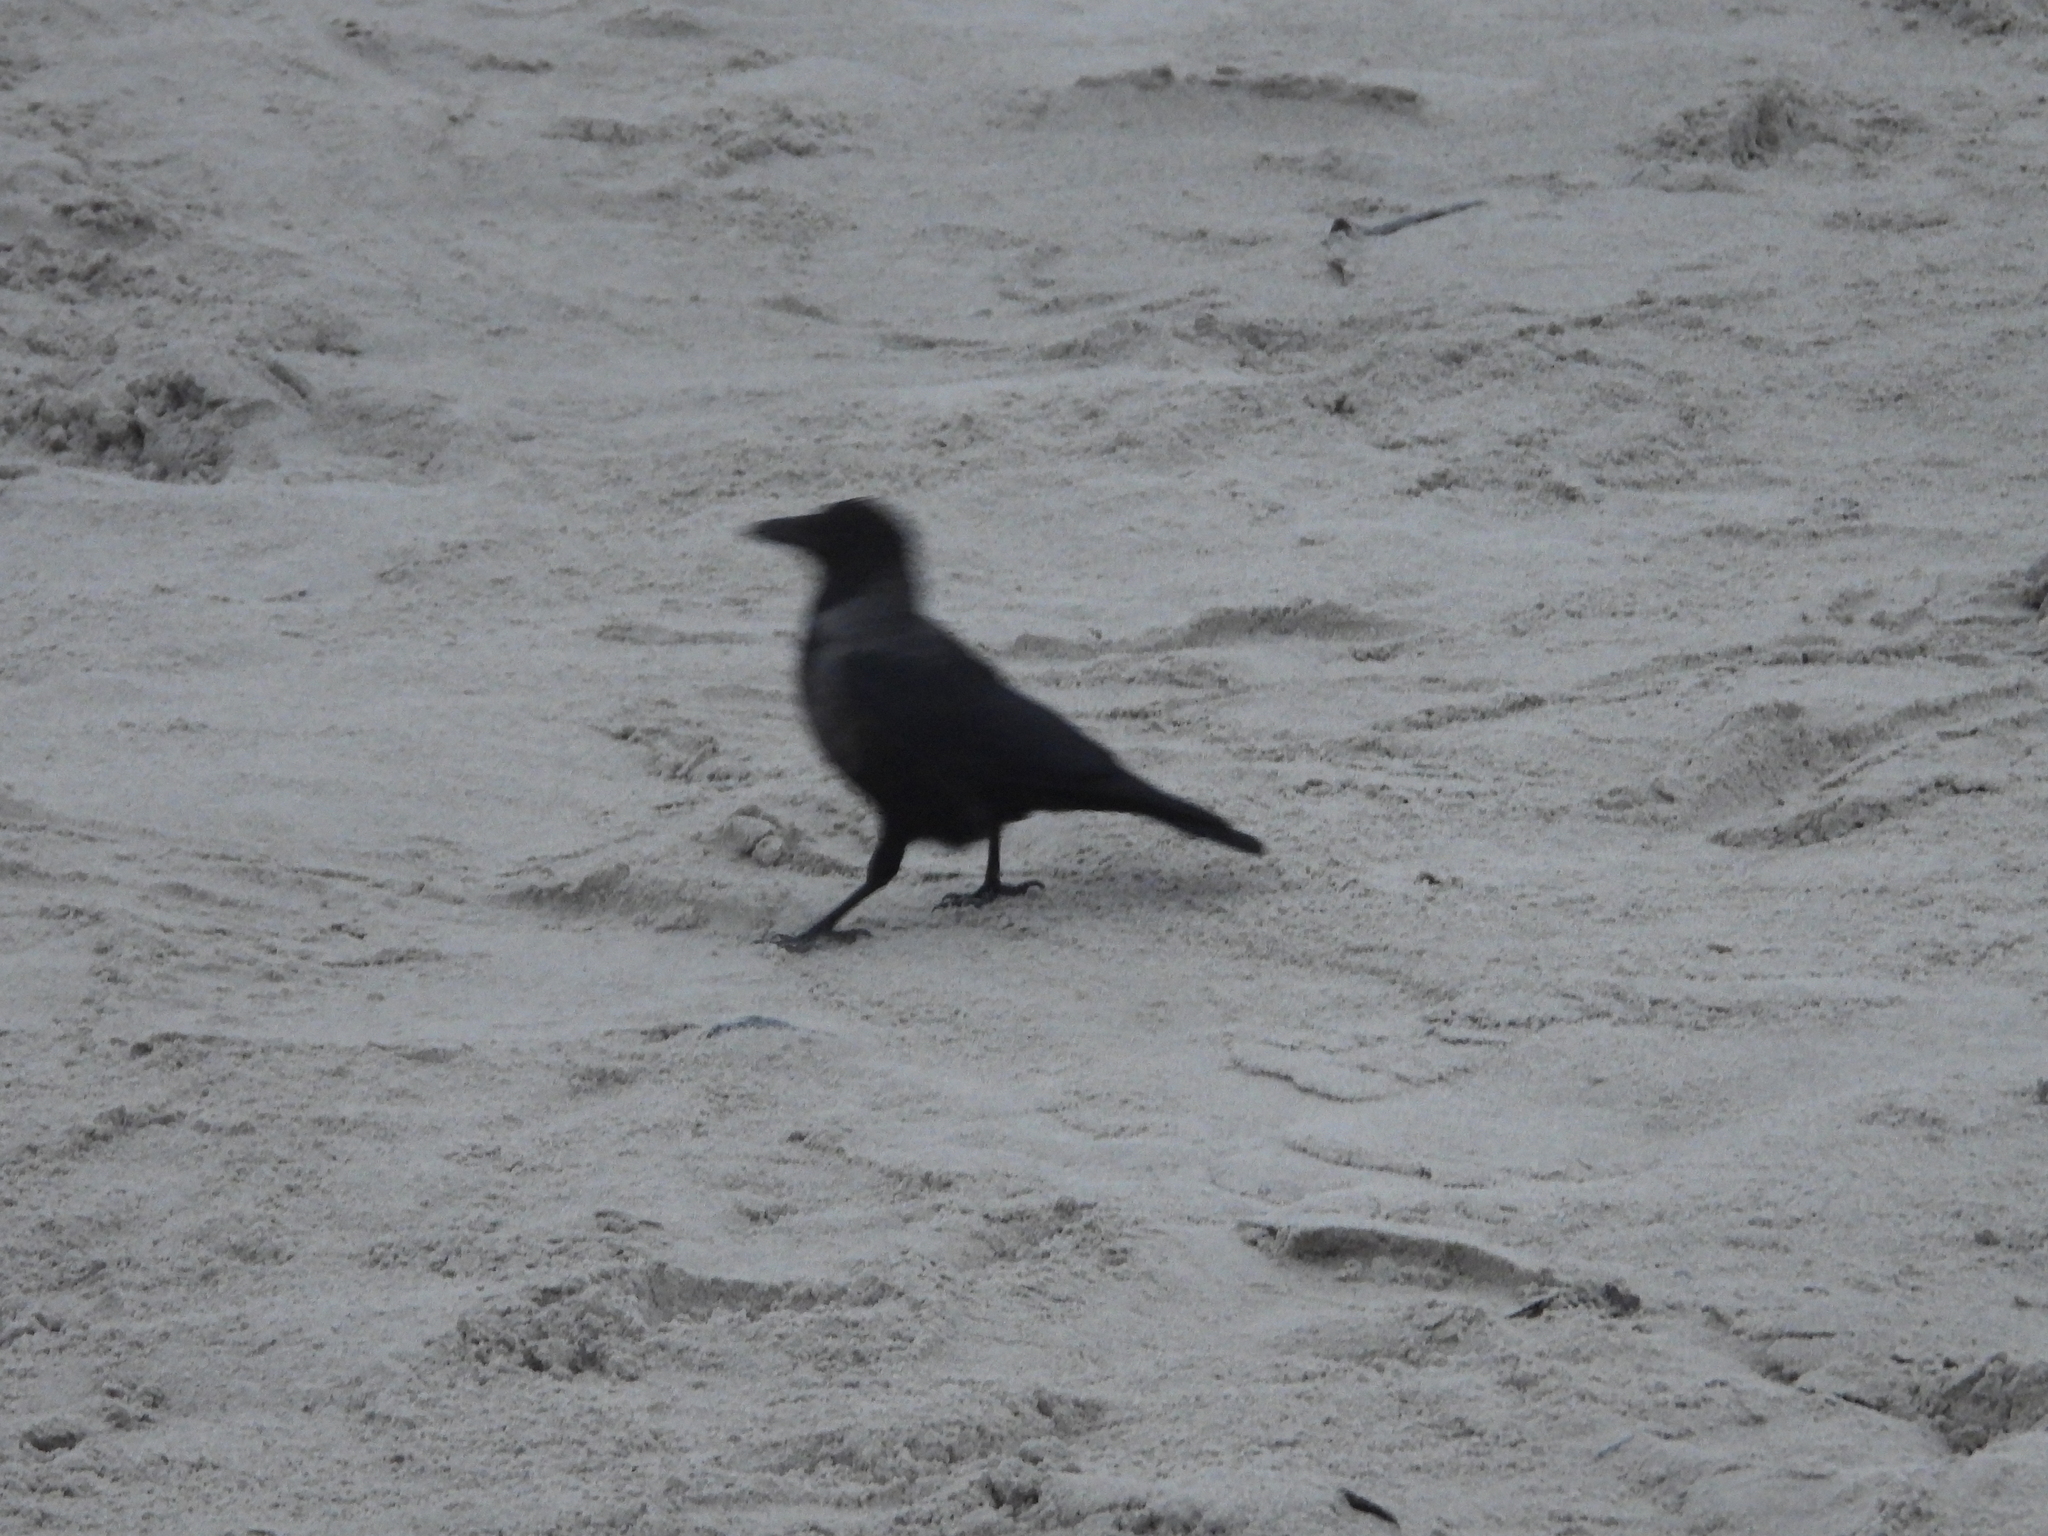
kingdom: Animalia
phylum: Chordata
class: Aves
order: Passeriformes
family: Corvidae
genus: Corvus
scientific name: Corvus
